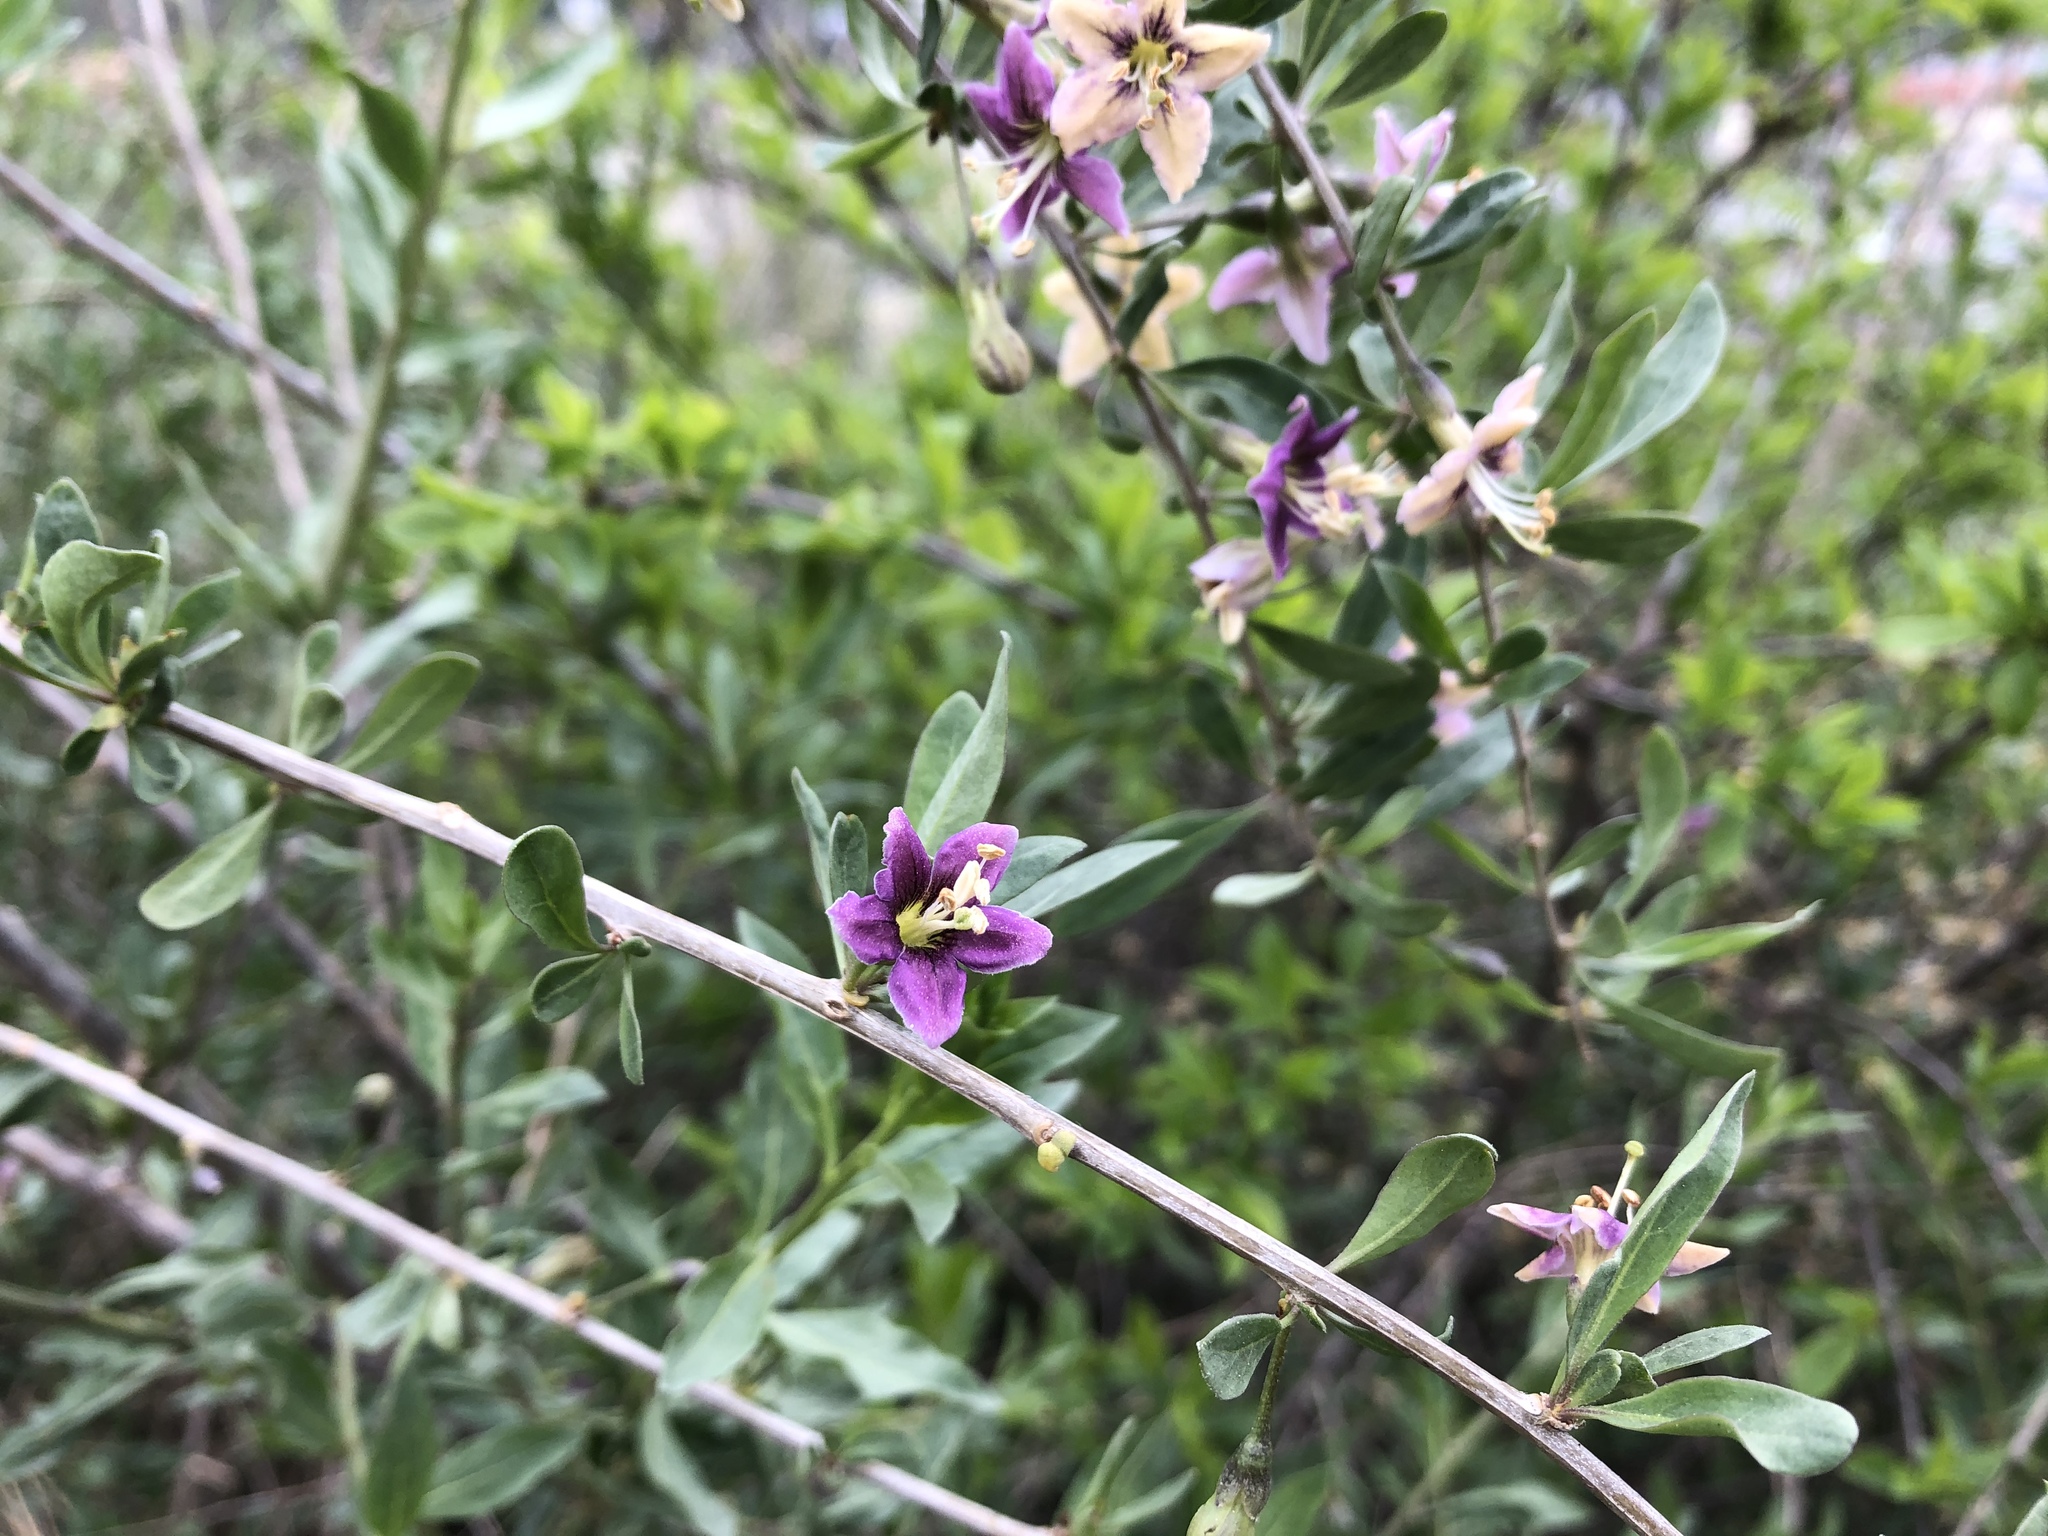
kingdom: Plantae
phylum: Tracheophyta
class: Magnoliopsida
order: Solanales
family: Solanaceae
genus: Lycium
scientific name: Lycium barbarum
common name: Duke of argyll's teaplant
